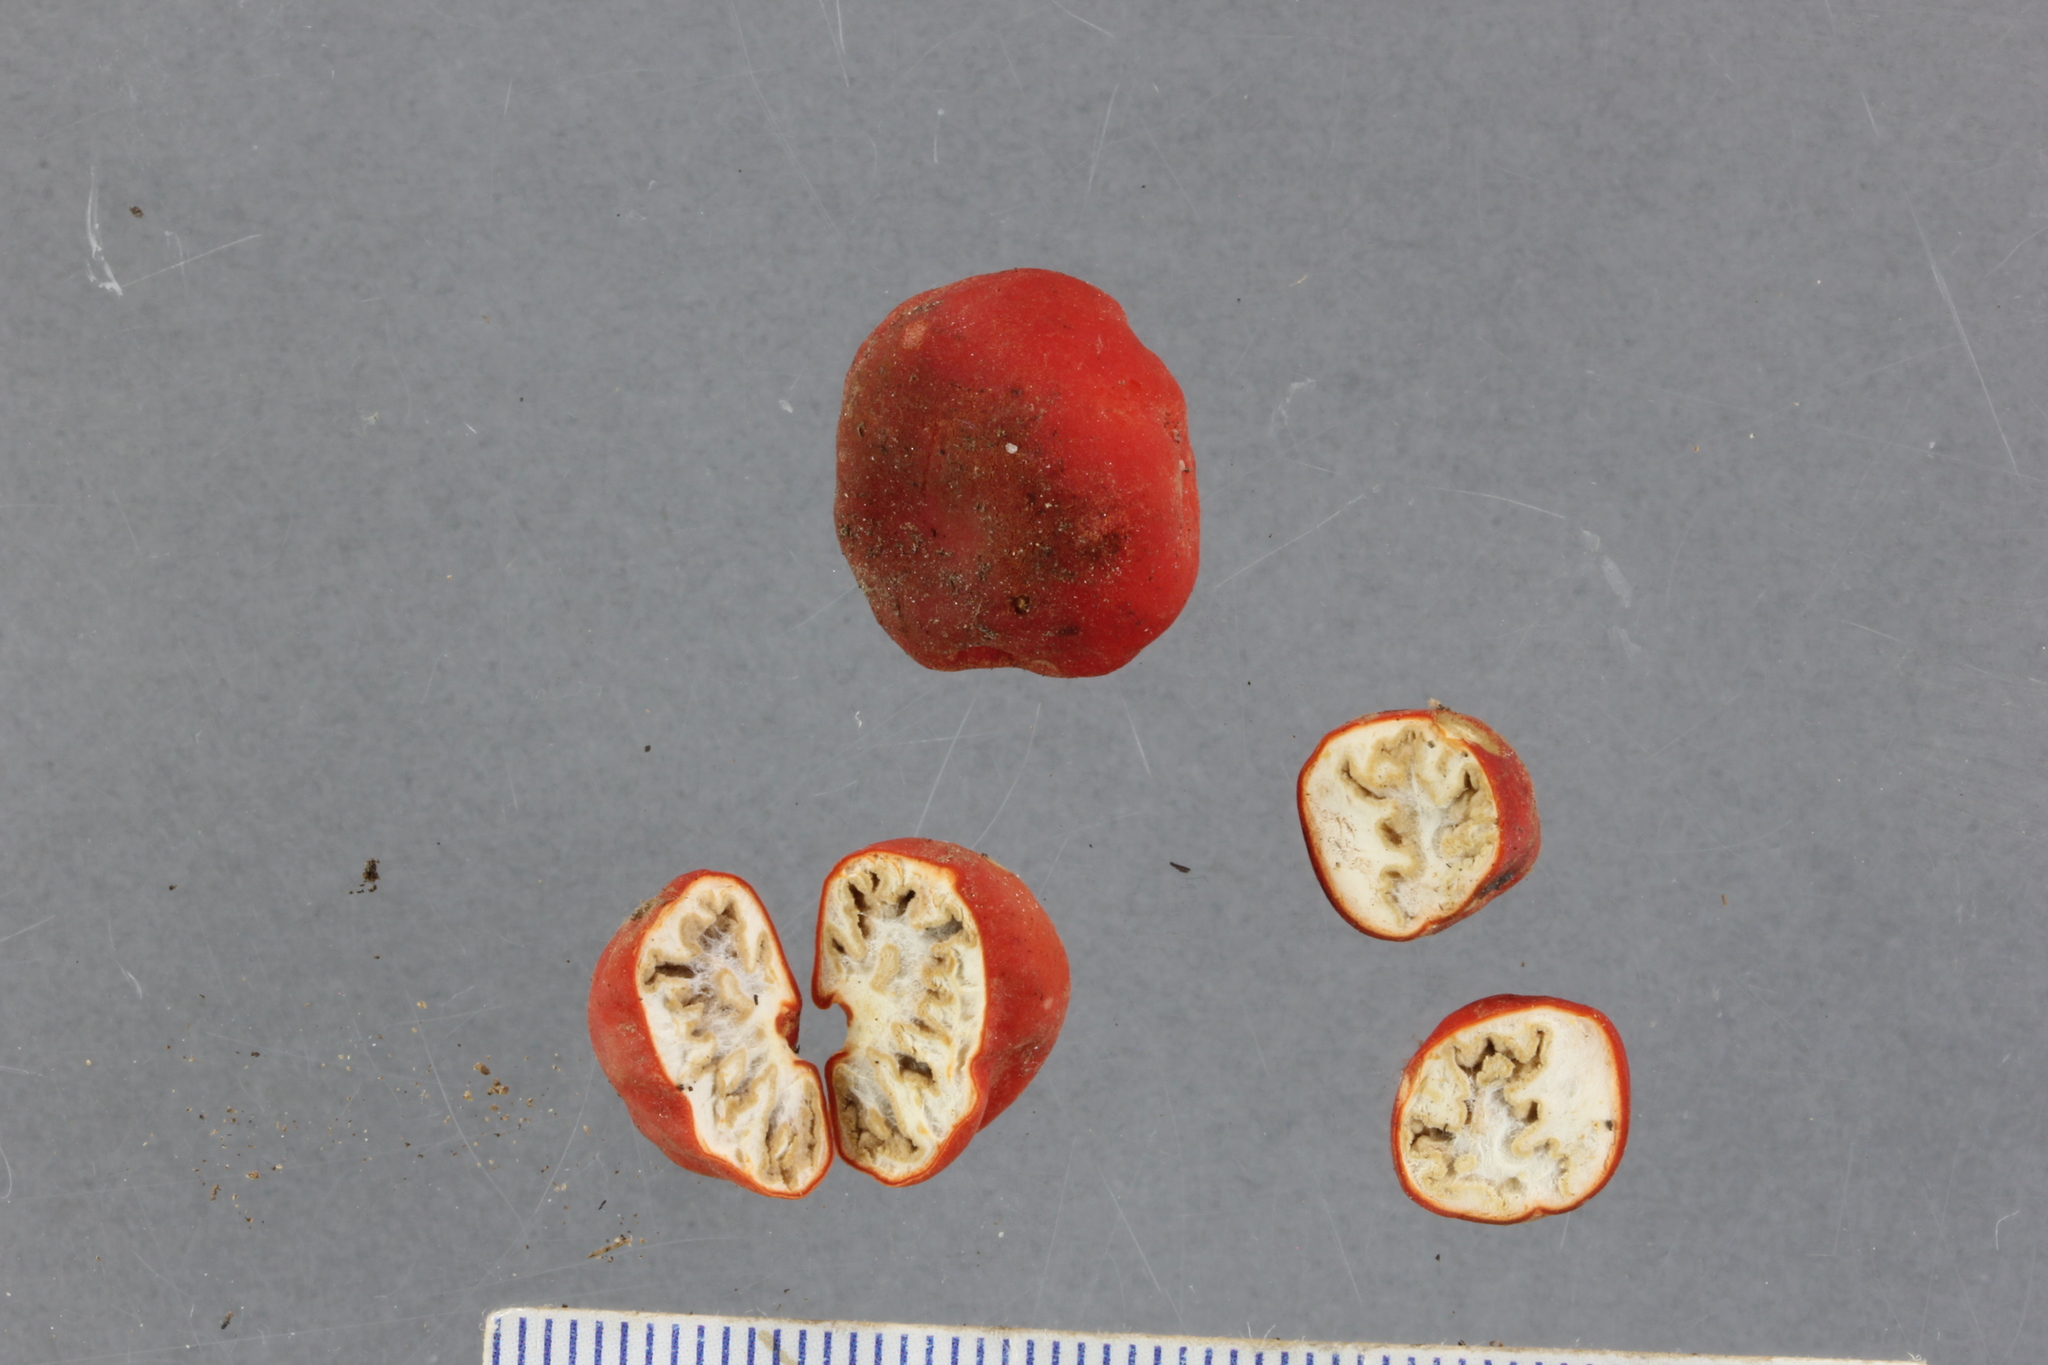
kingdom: Fungi
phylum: Ascomycota
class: Pezizomycetes
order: Pezizales
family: Pyronemataceae
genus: Paurocotylis
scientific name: Paurocotylis pila
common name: Scarlet berry truffle
